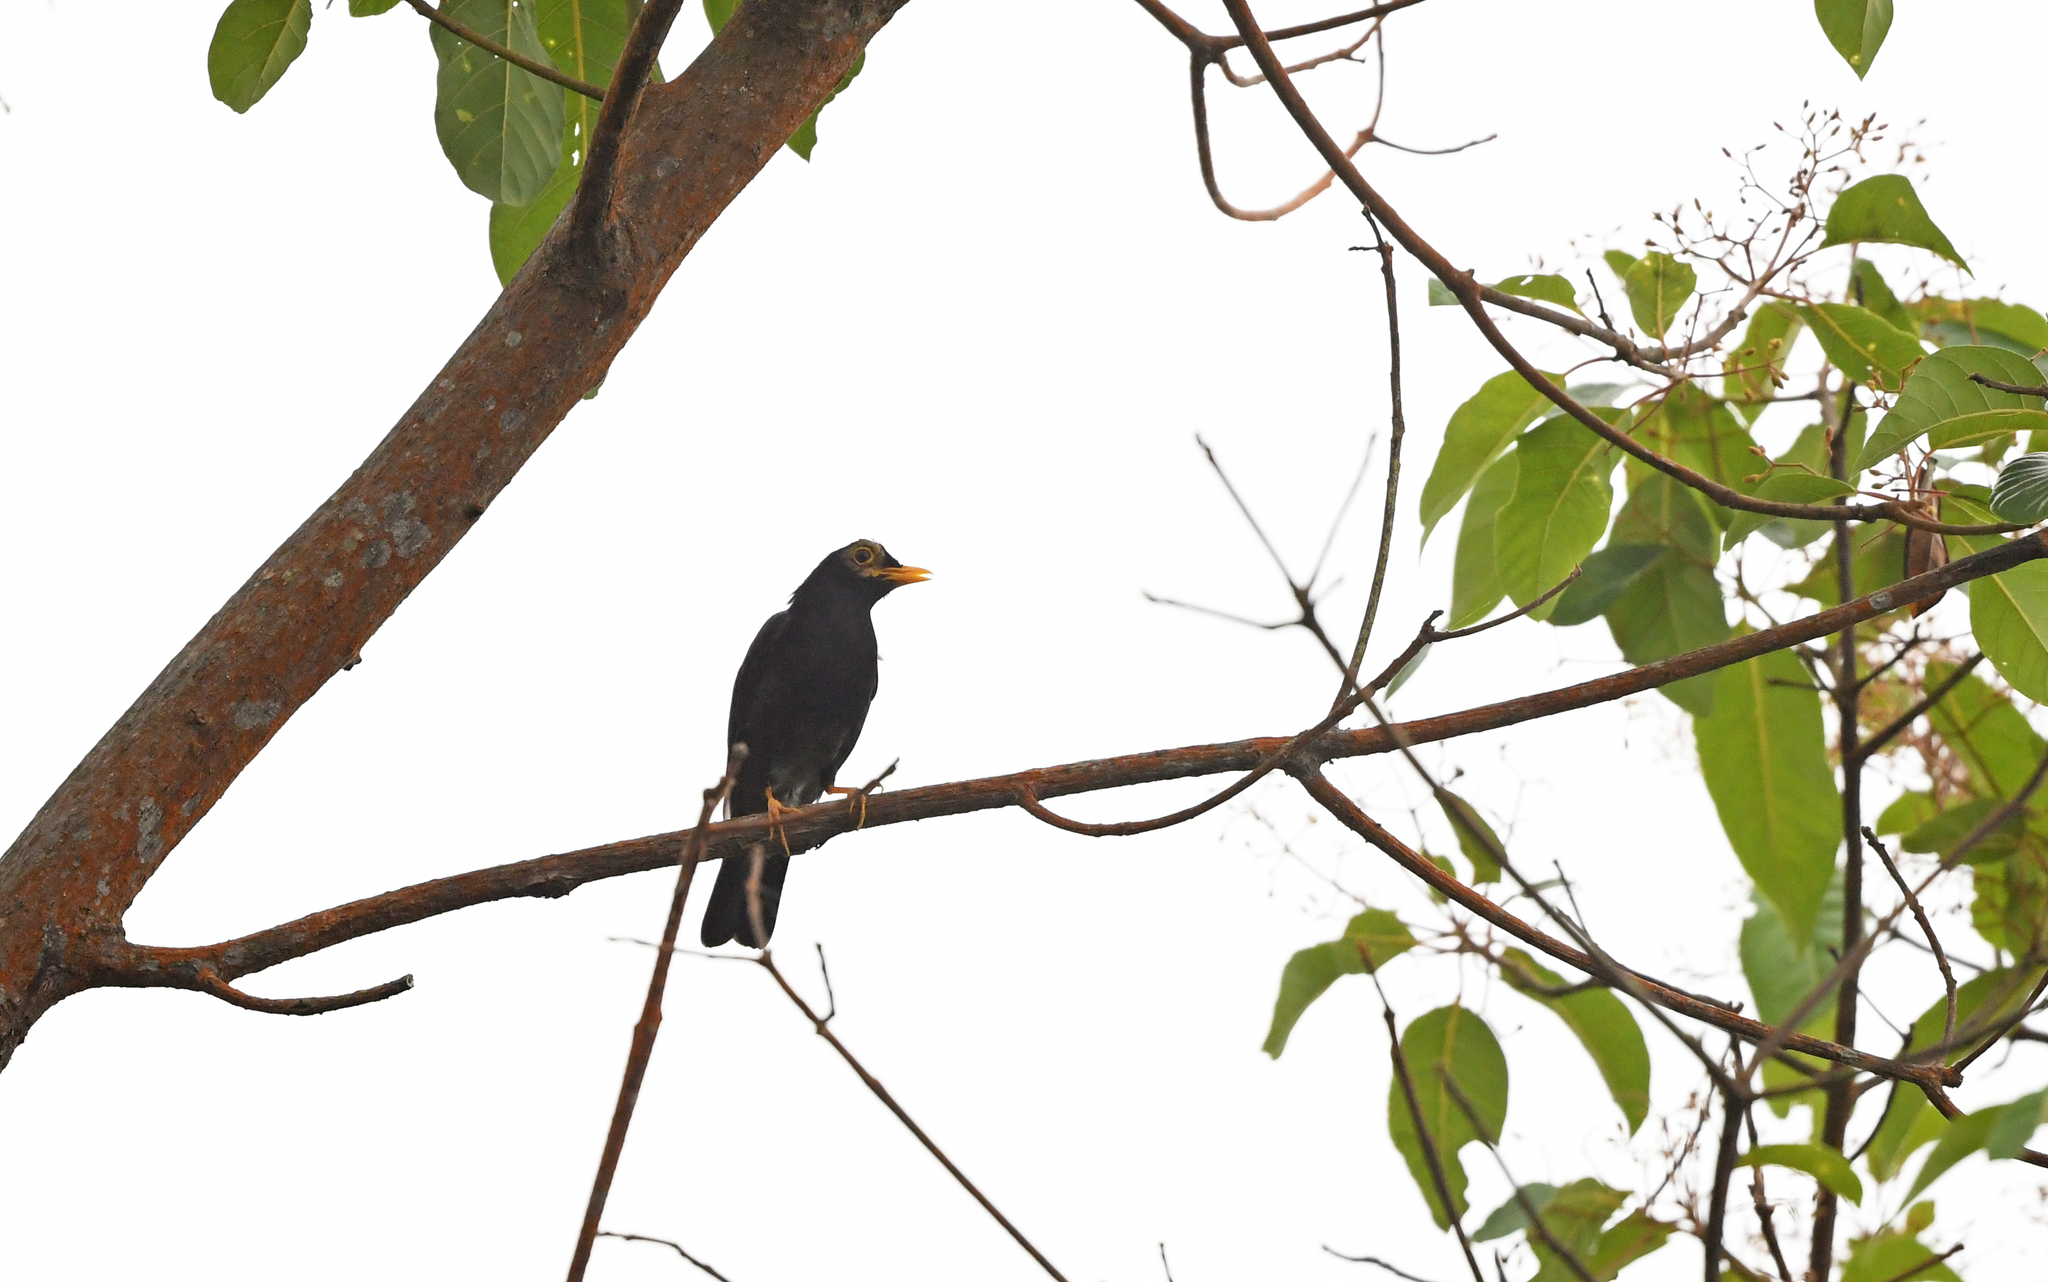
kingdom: Animalia
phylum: Chordata
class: Aves
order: Passeriformes
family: Turdidae
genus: Turdus
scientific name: Turdus flavipes
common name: Yellow-legged thrush
